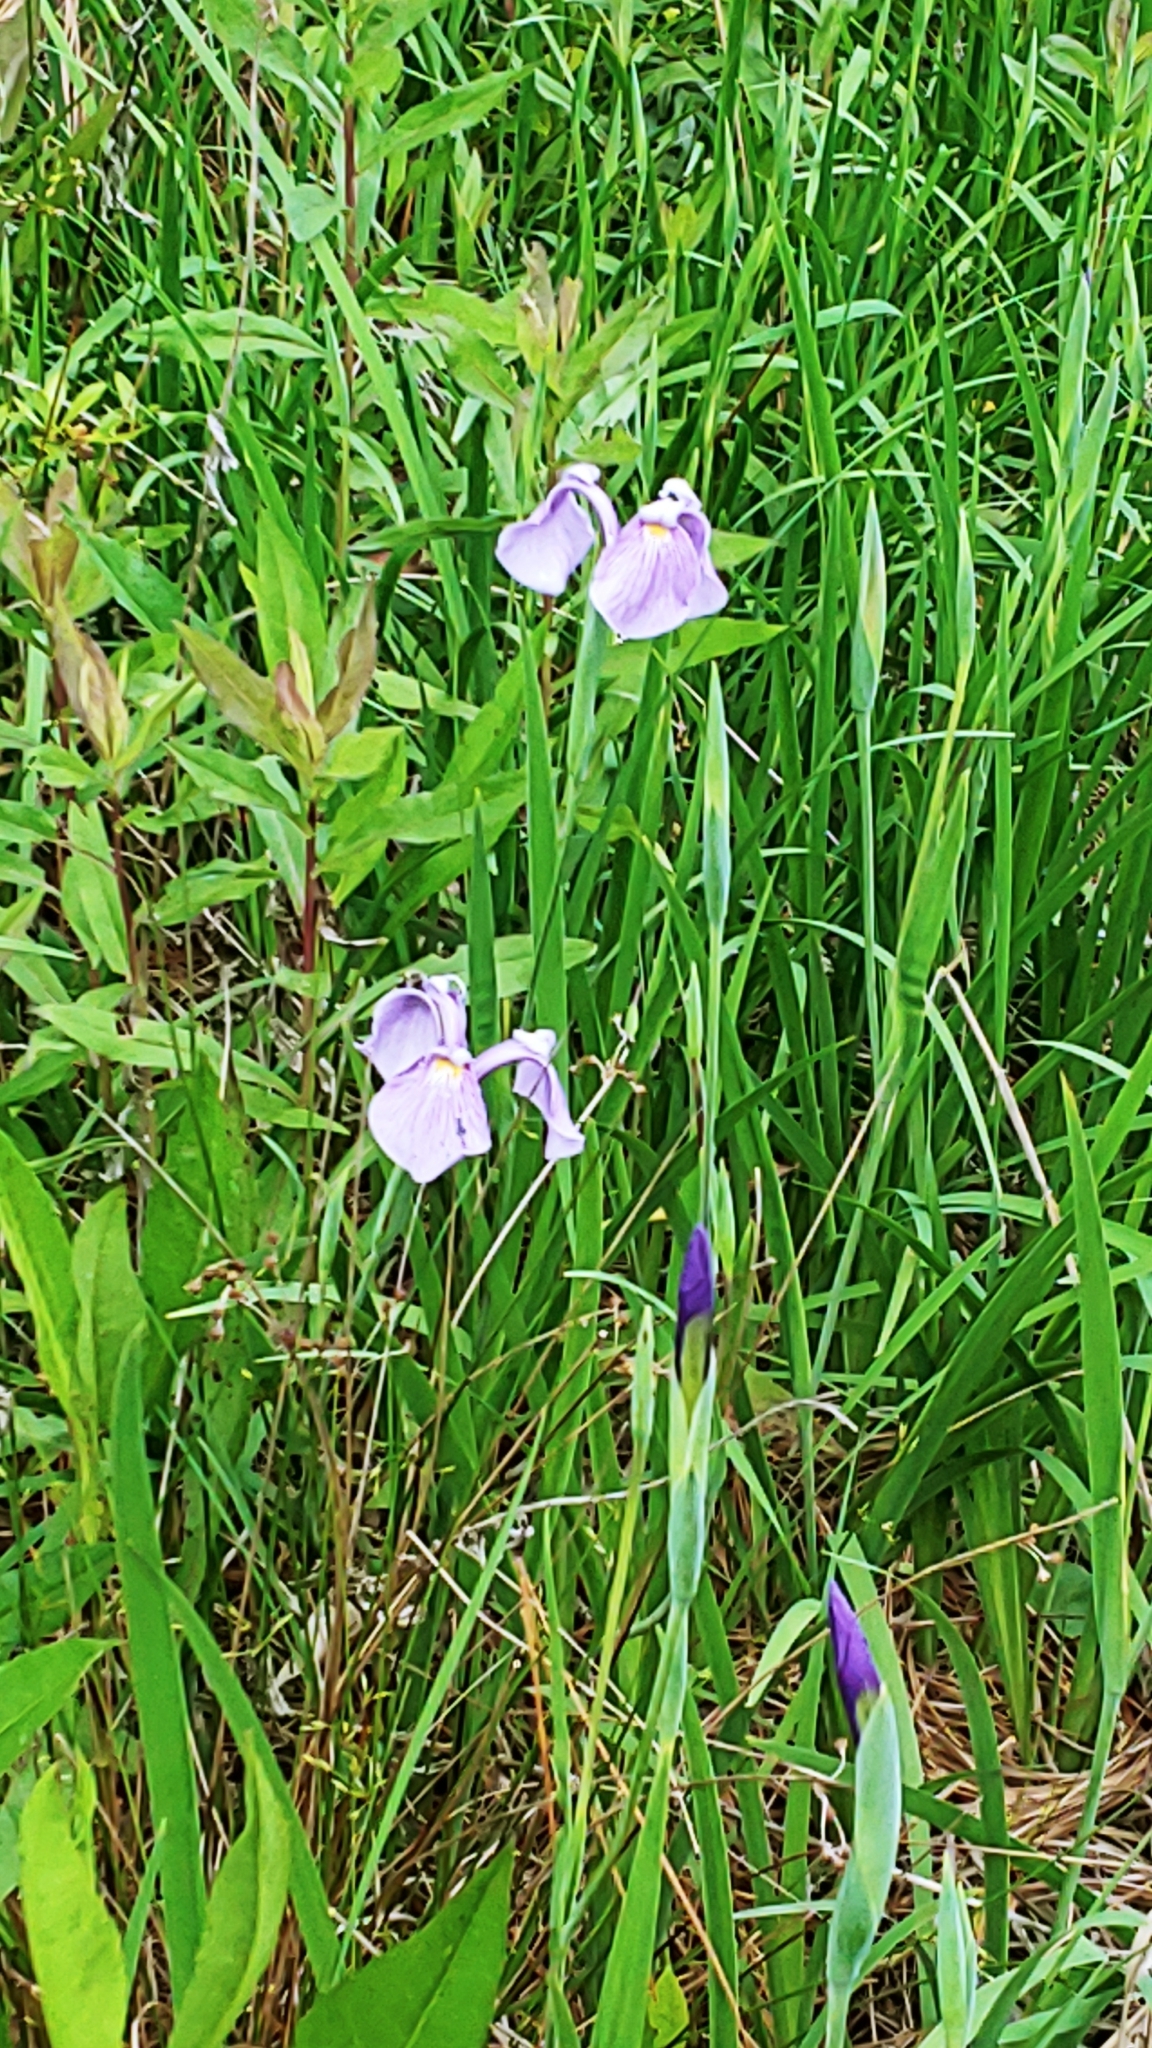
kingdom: Plantae
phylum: Tracheophyta
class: Liliopsida
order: Asparagales
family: Iridaceae
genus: Iris
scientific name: Iris tridentata
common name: Savannah iris
